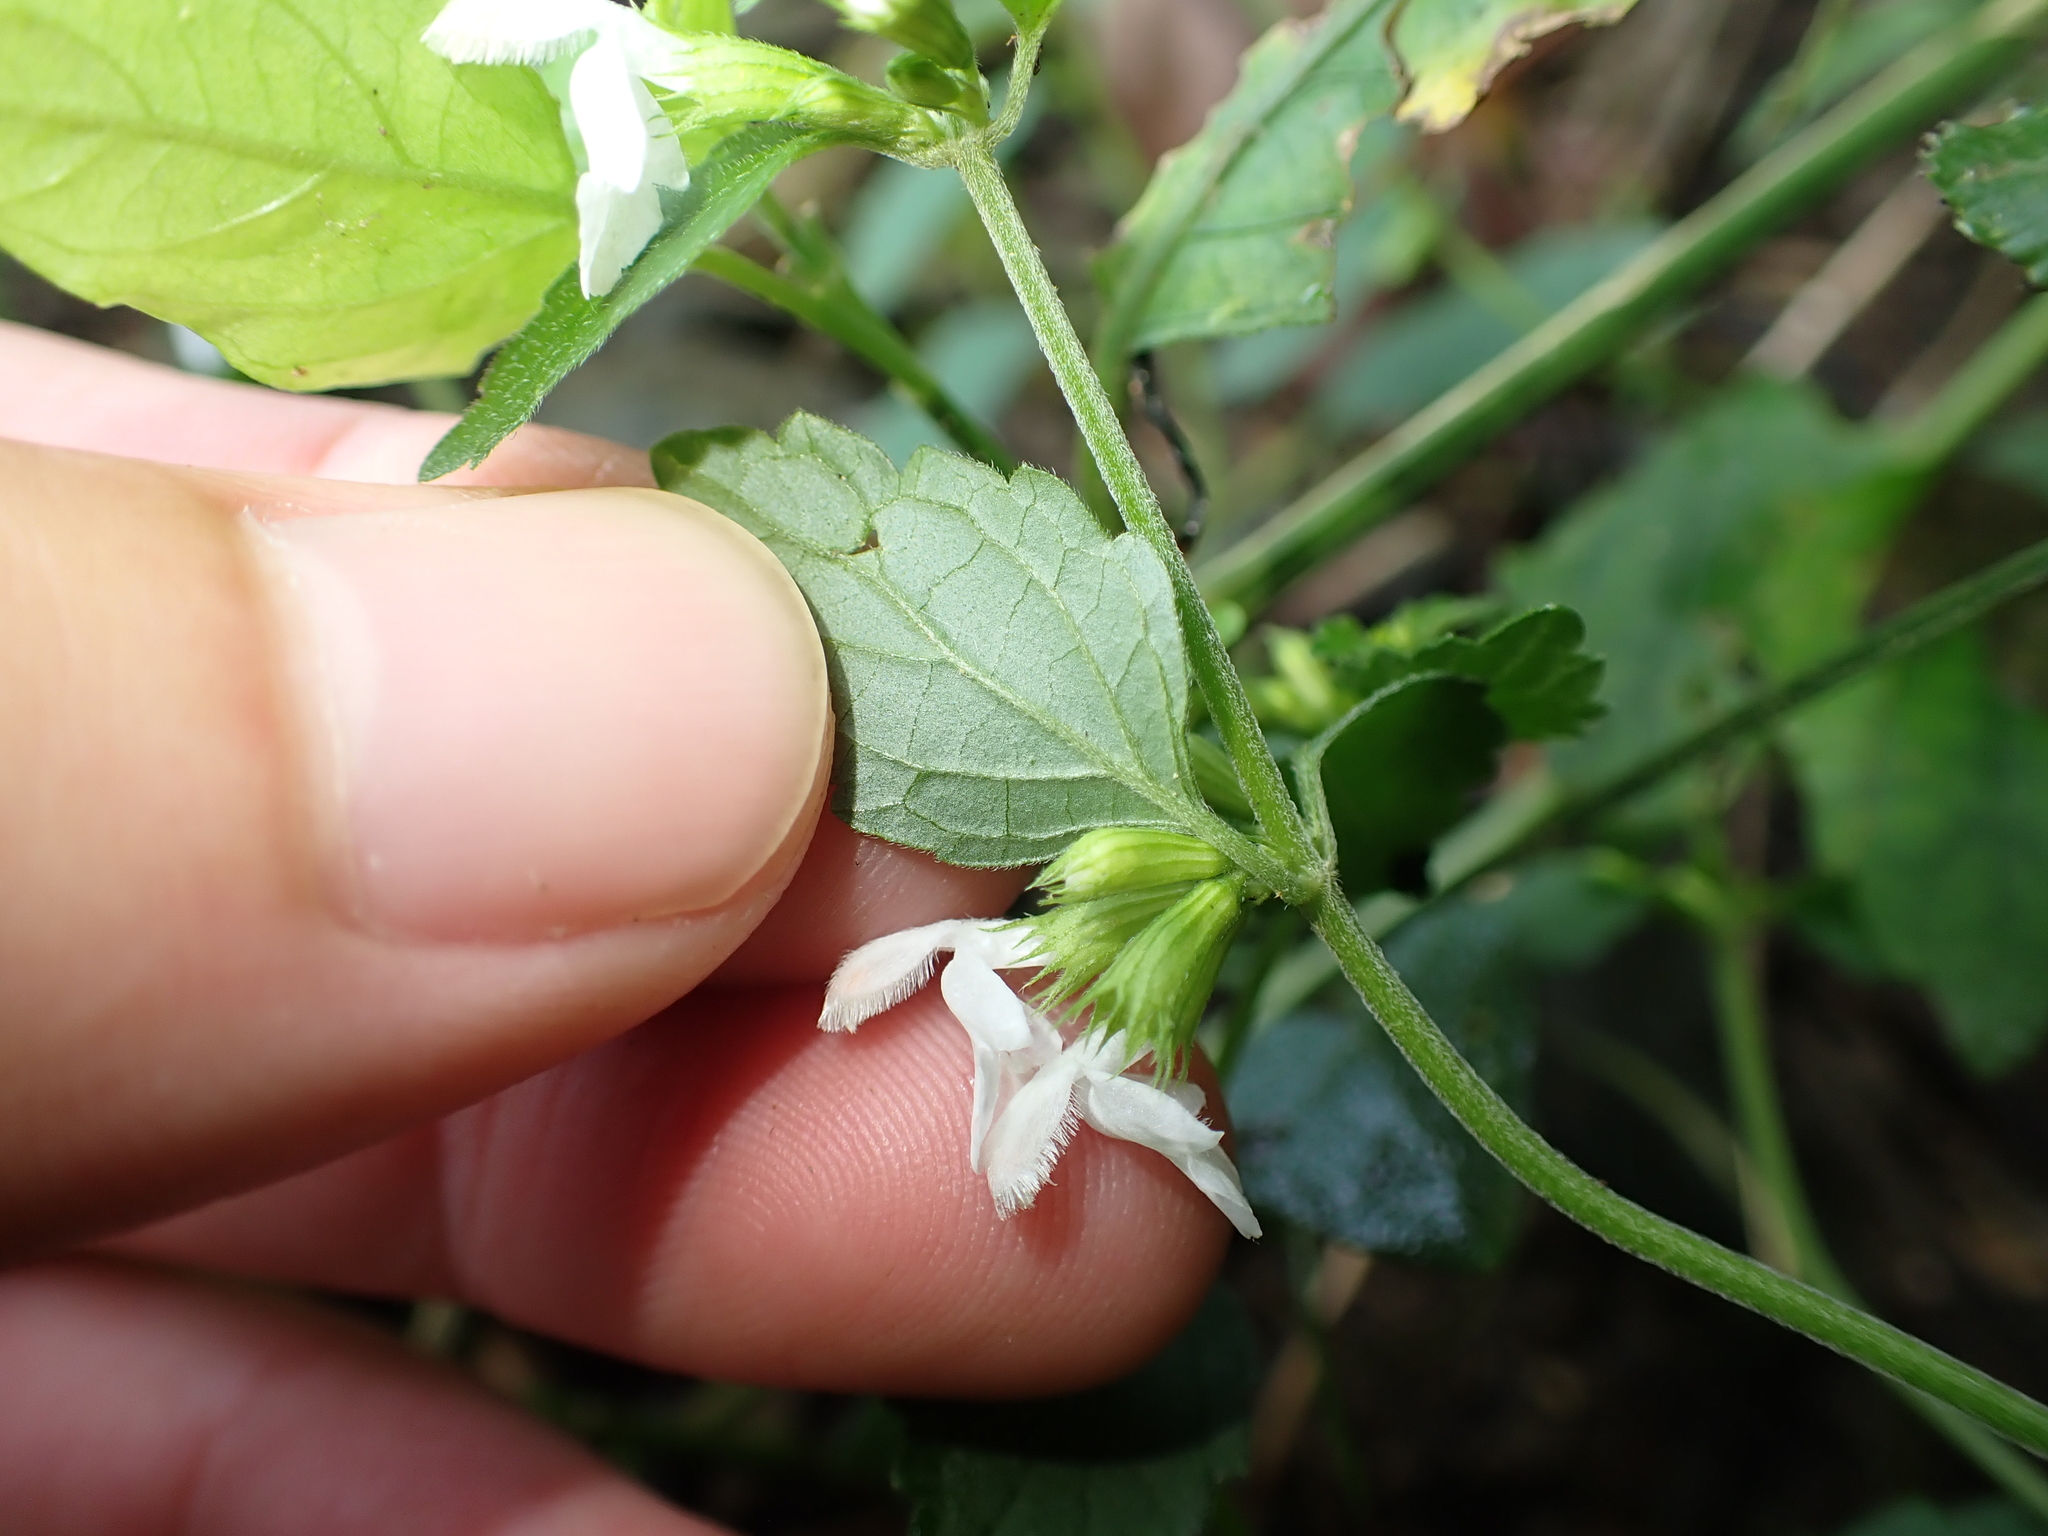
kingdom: Plantae
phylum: Tracheophyta
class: Magnoliopsida
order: Lamiales
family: Lamiaceae
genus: Leucas
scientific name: Leucas chinensis
